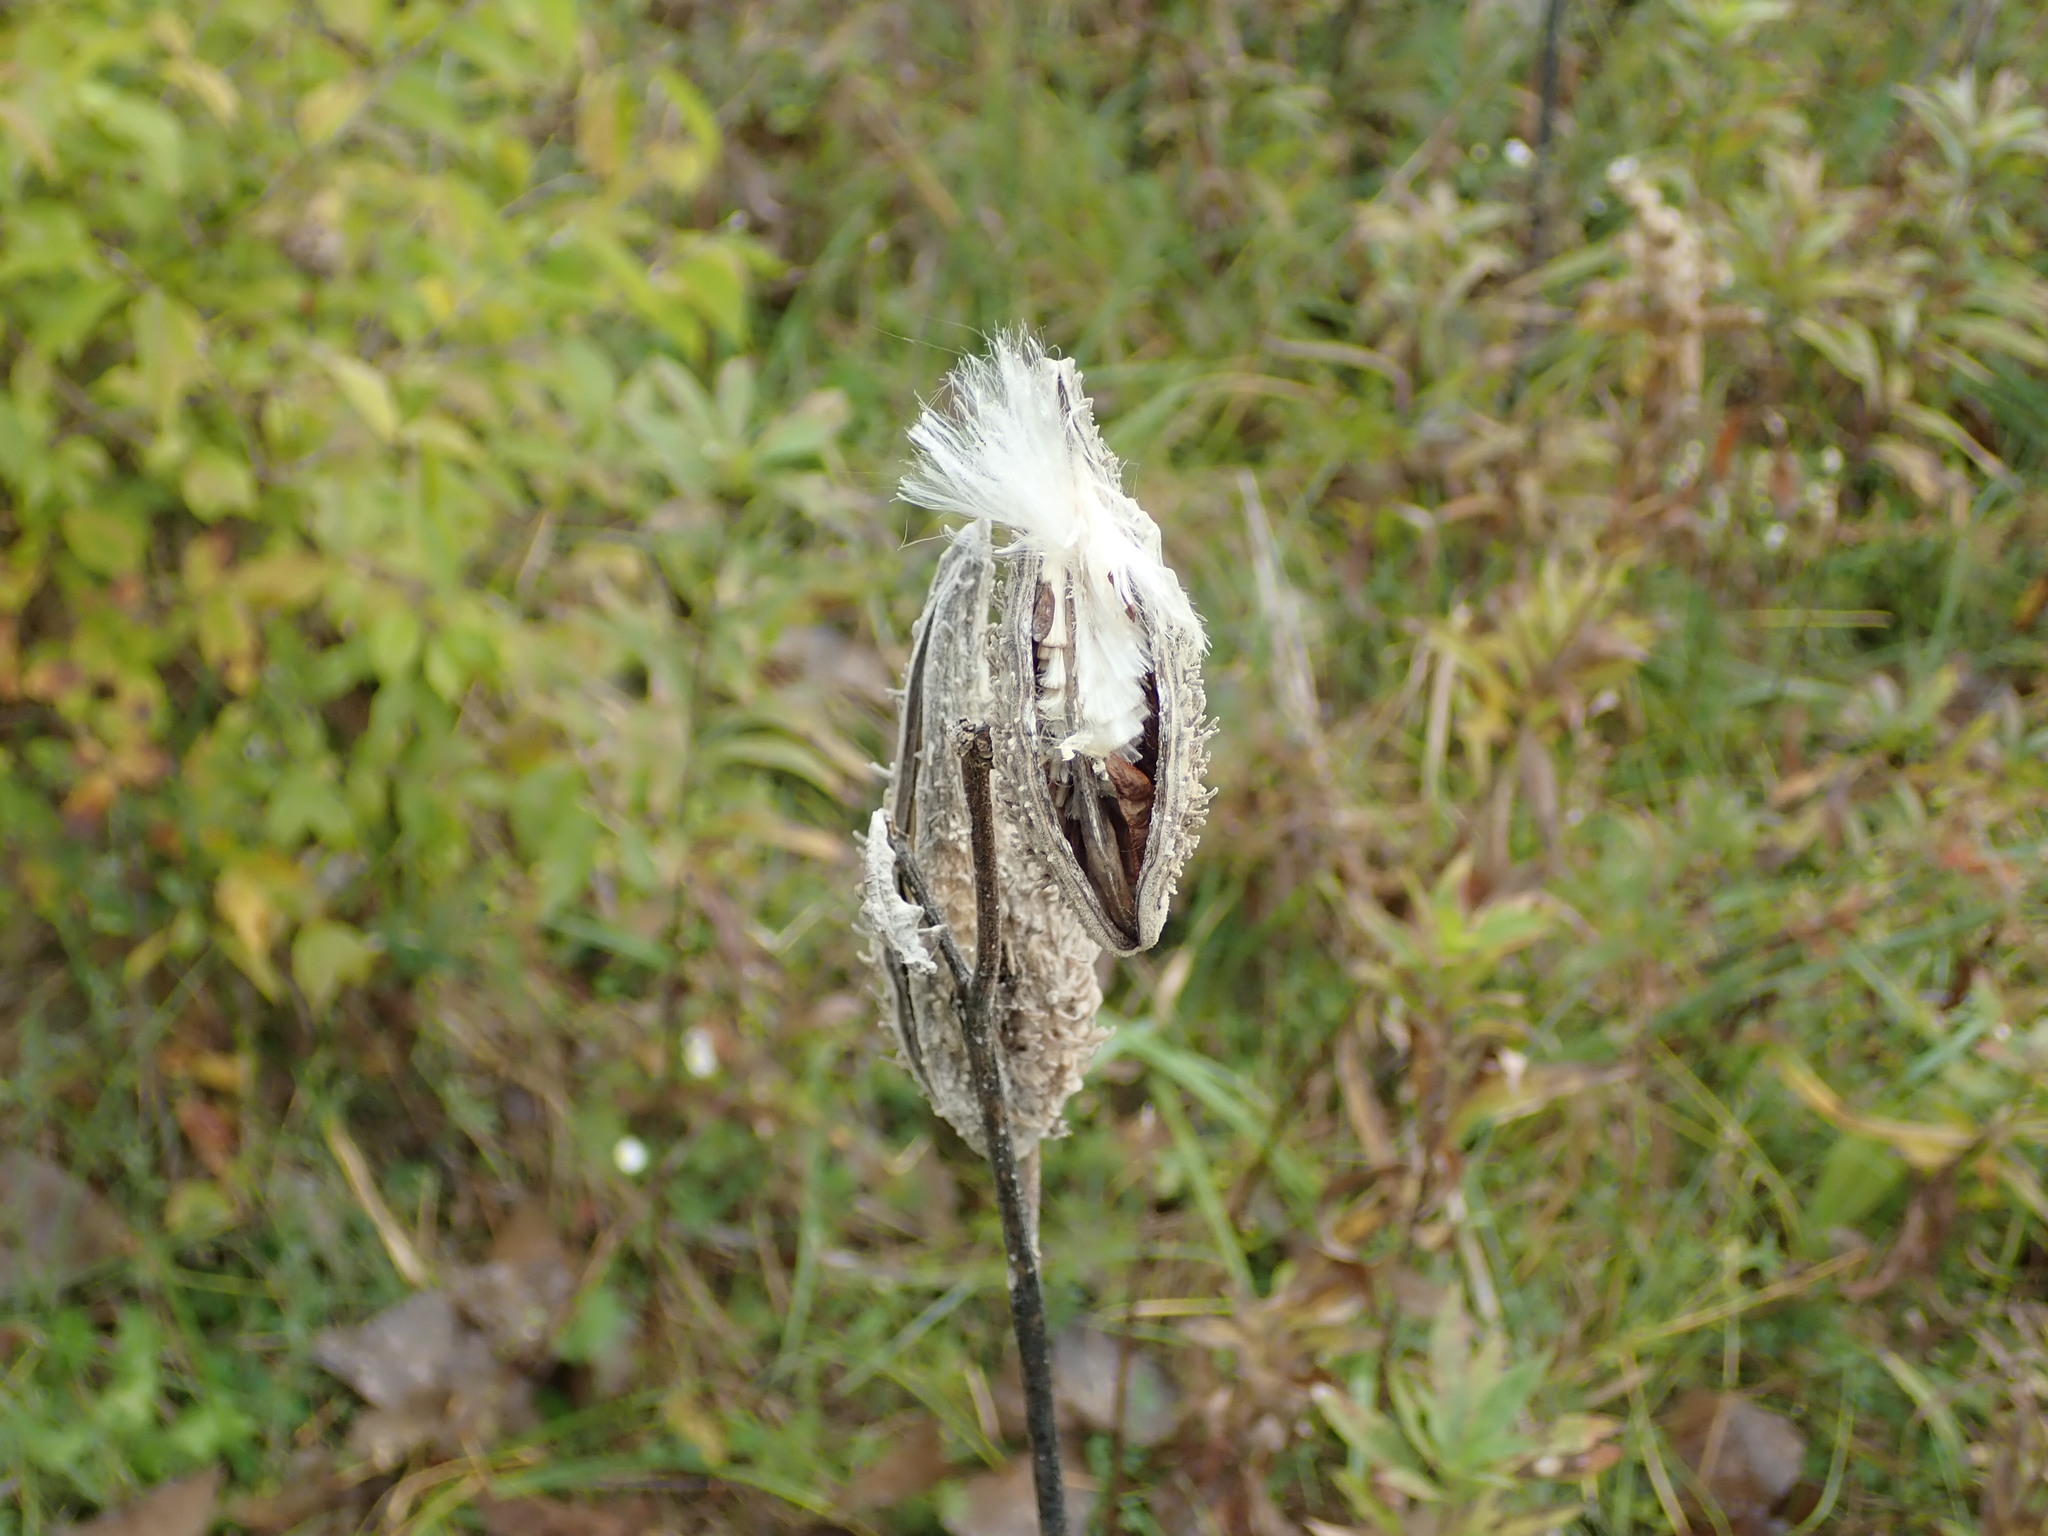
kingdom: Plantae
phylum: Tracheophyta
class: Magnoliopsida
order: Gentianales
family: Apocynaceae
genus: Asclepias
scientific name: Asclepias syriaca
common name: Common milkweed
